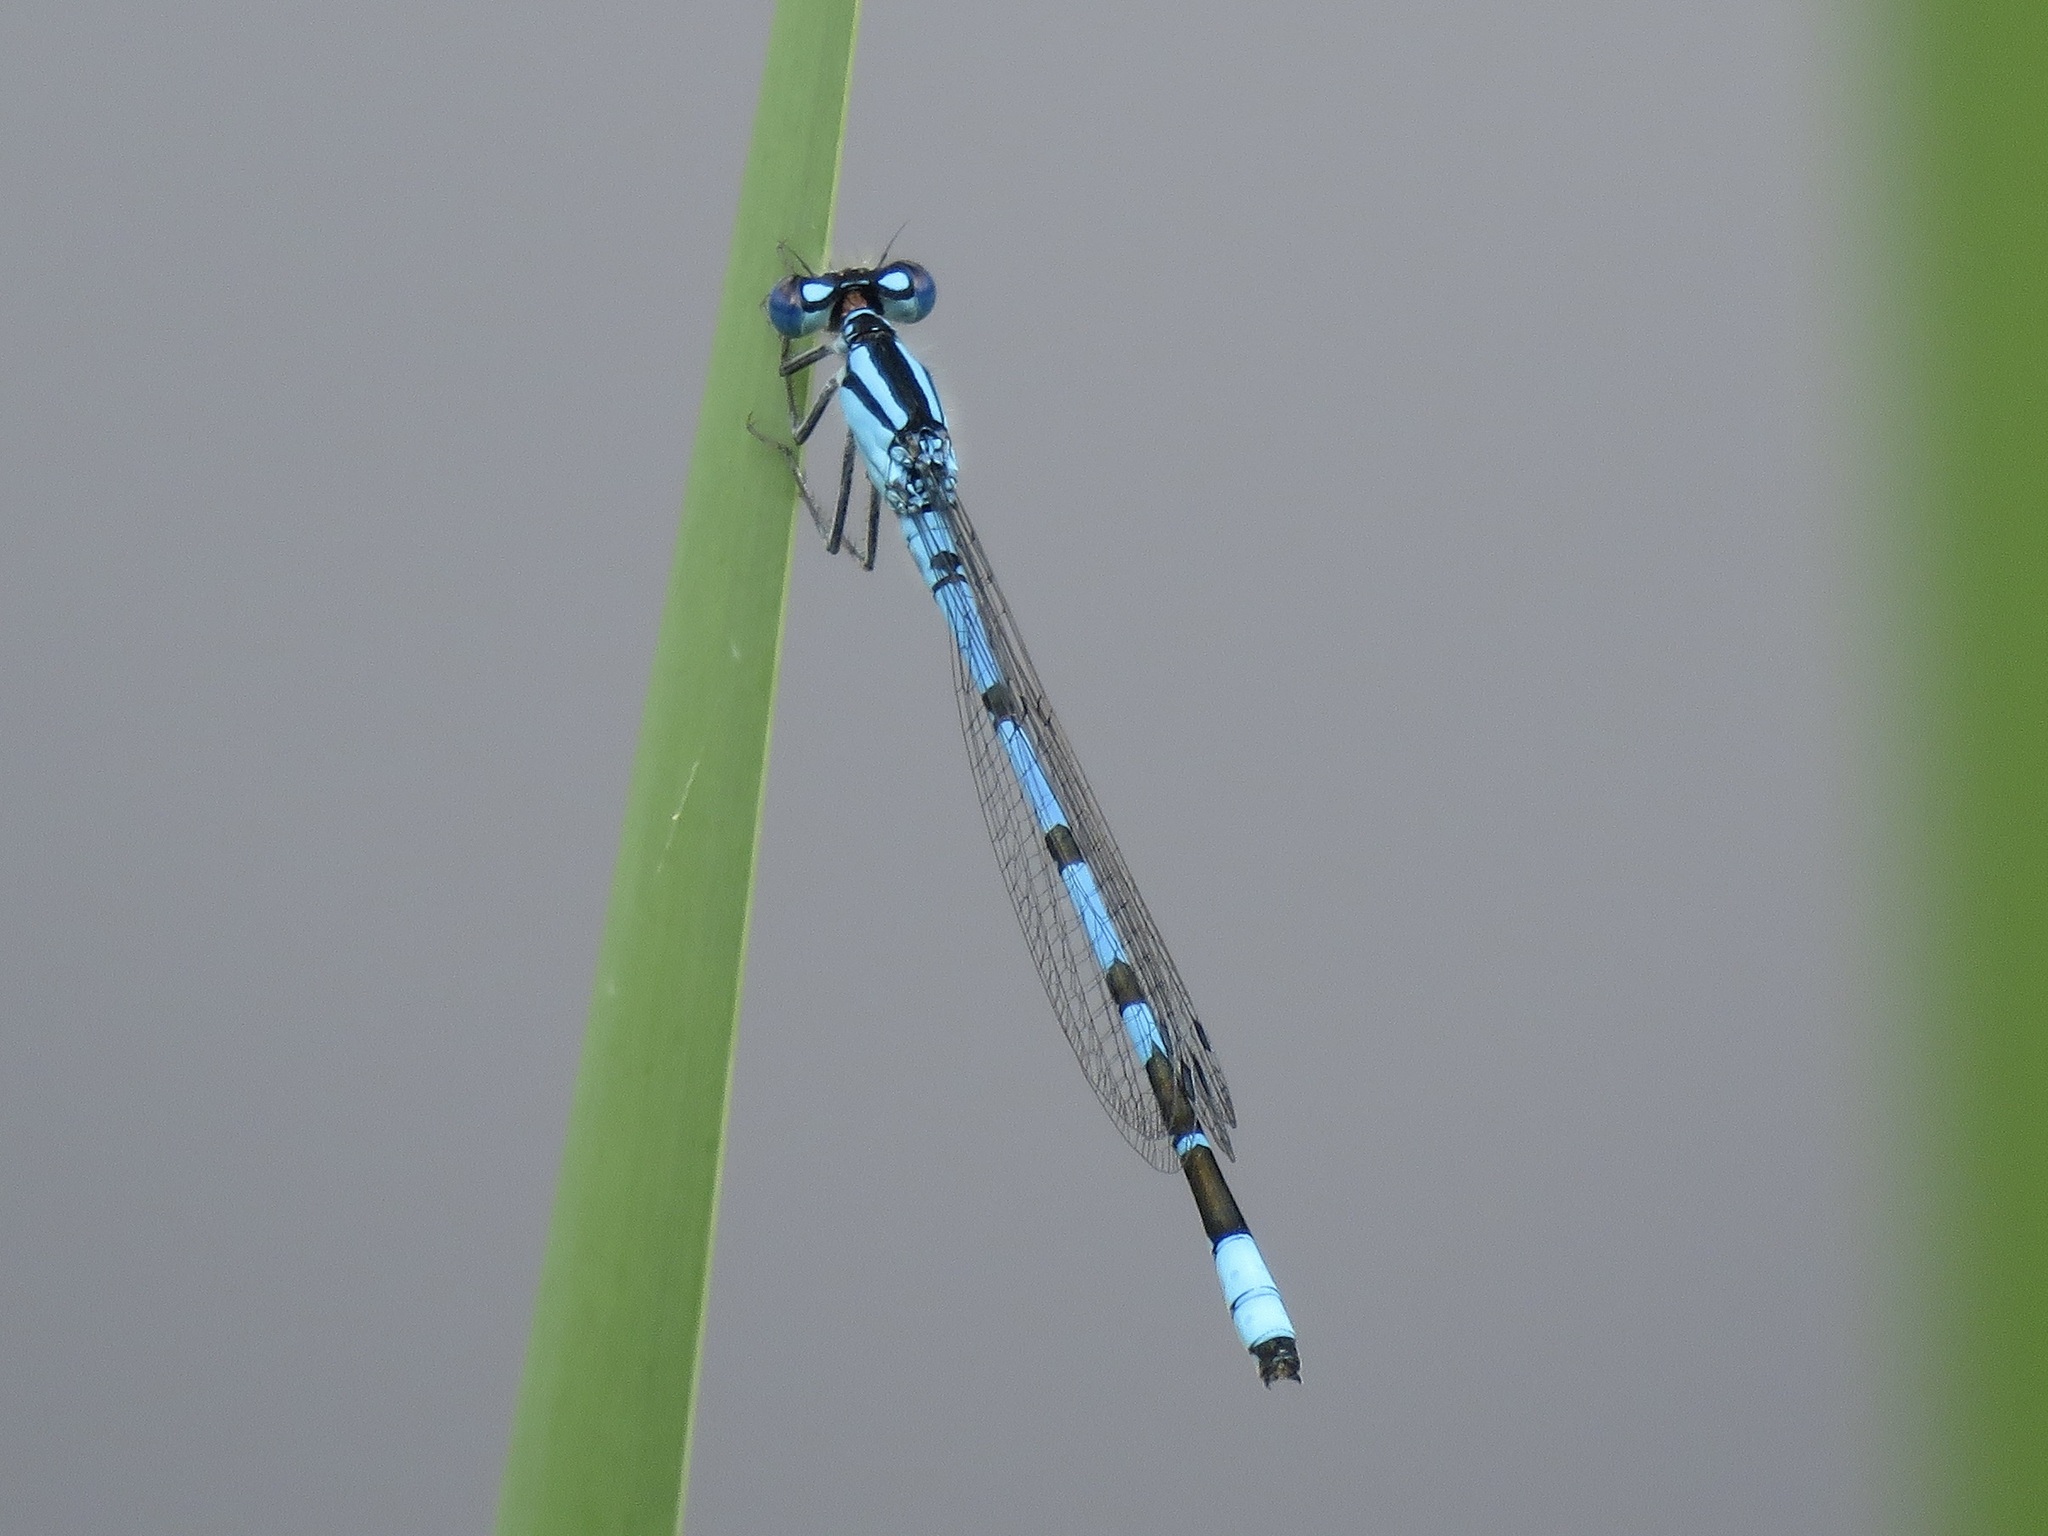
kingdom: Animalia
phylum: Arthropoda
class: Insecta
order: Odonata
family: Coenagrionidae
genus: Enallagma
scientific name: Enallagma cyathigerum
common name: Common blue damselfly
